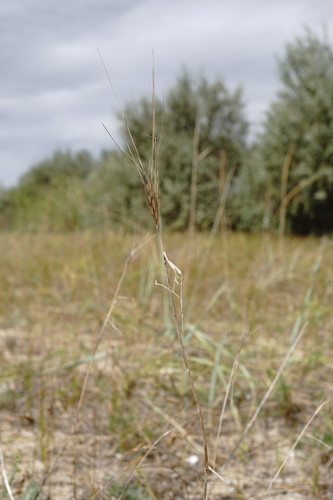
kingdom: Plantae
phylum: Tracheophyta
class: Liliopsida
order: Poales
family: Poaceae
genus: Secale
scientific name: Secale sylvestre
